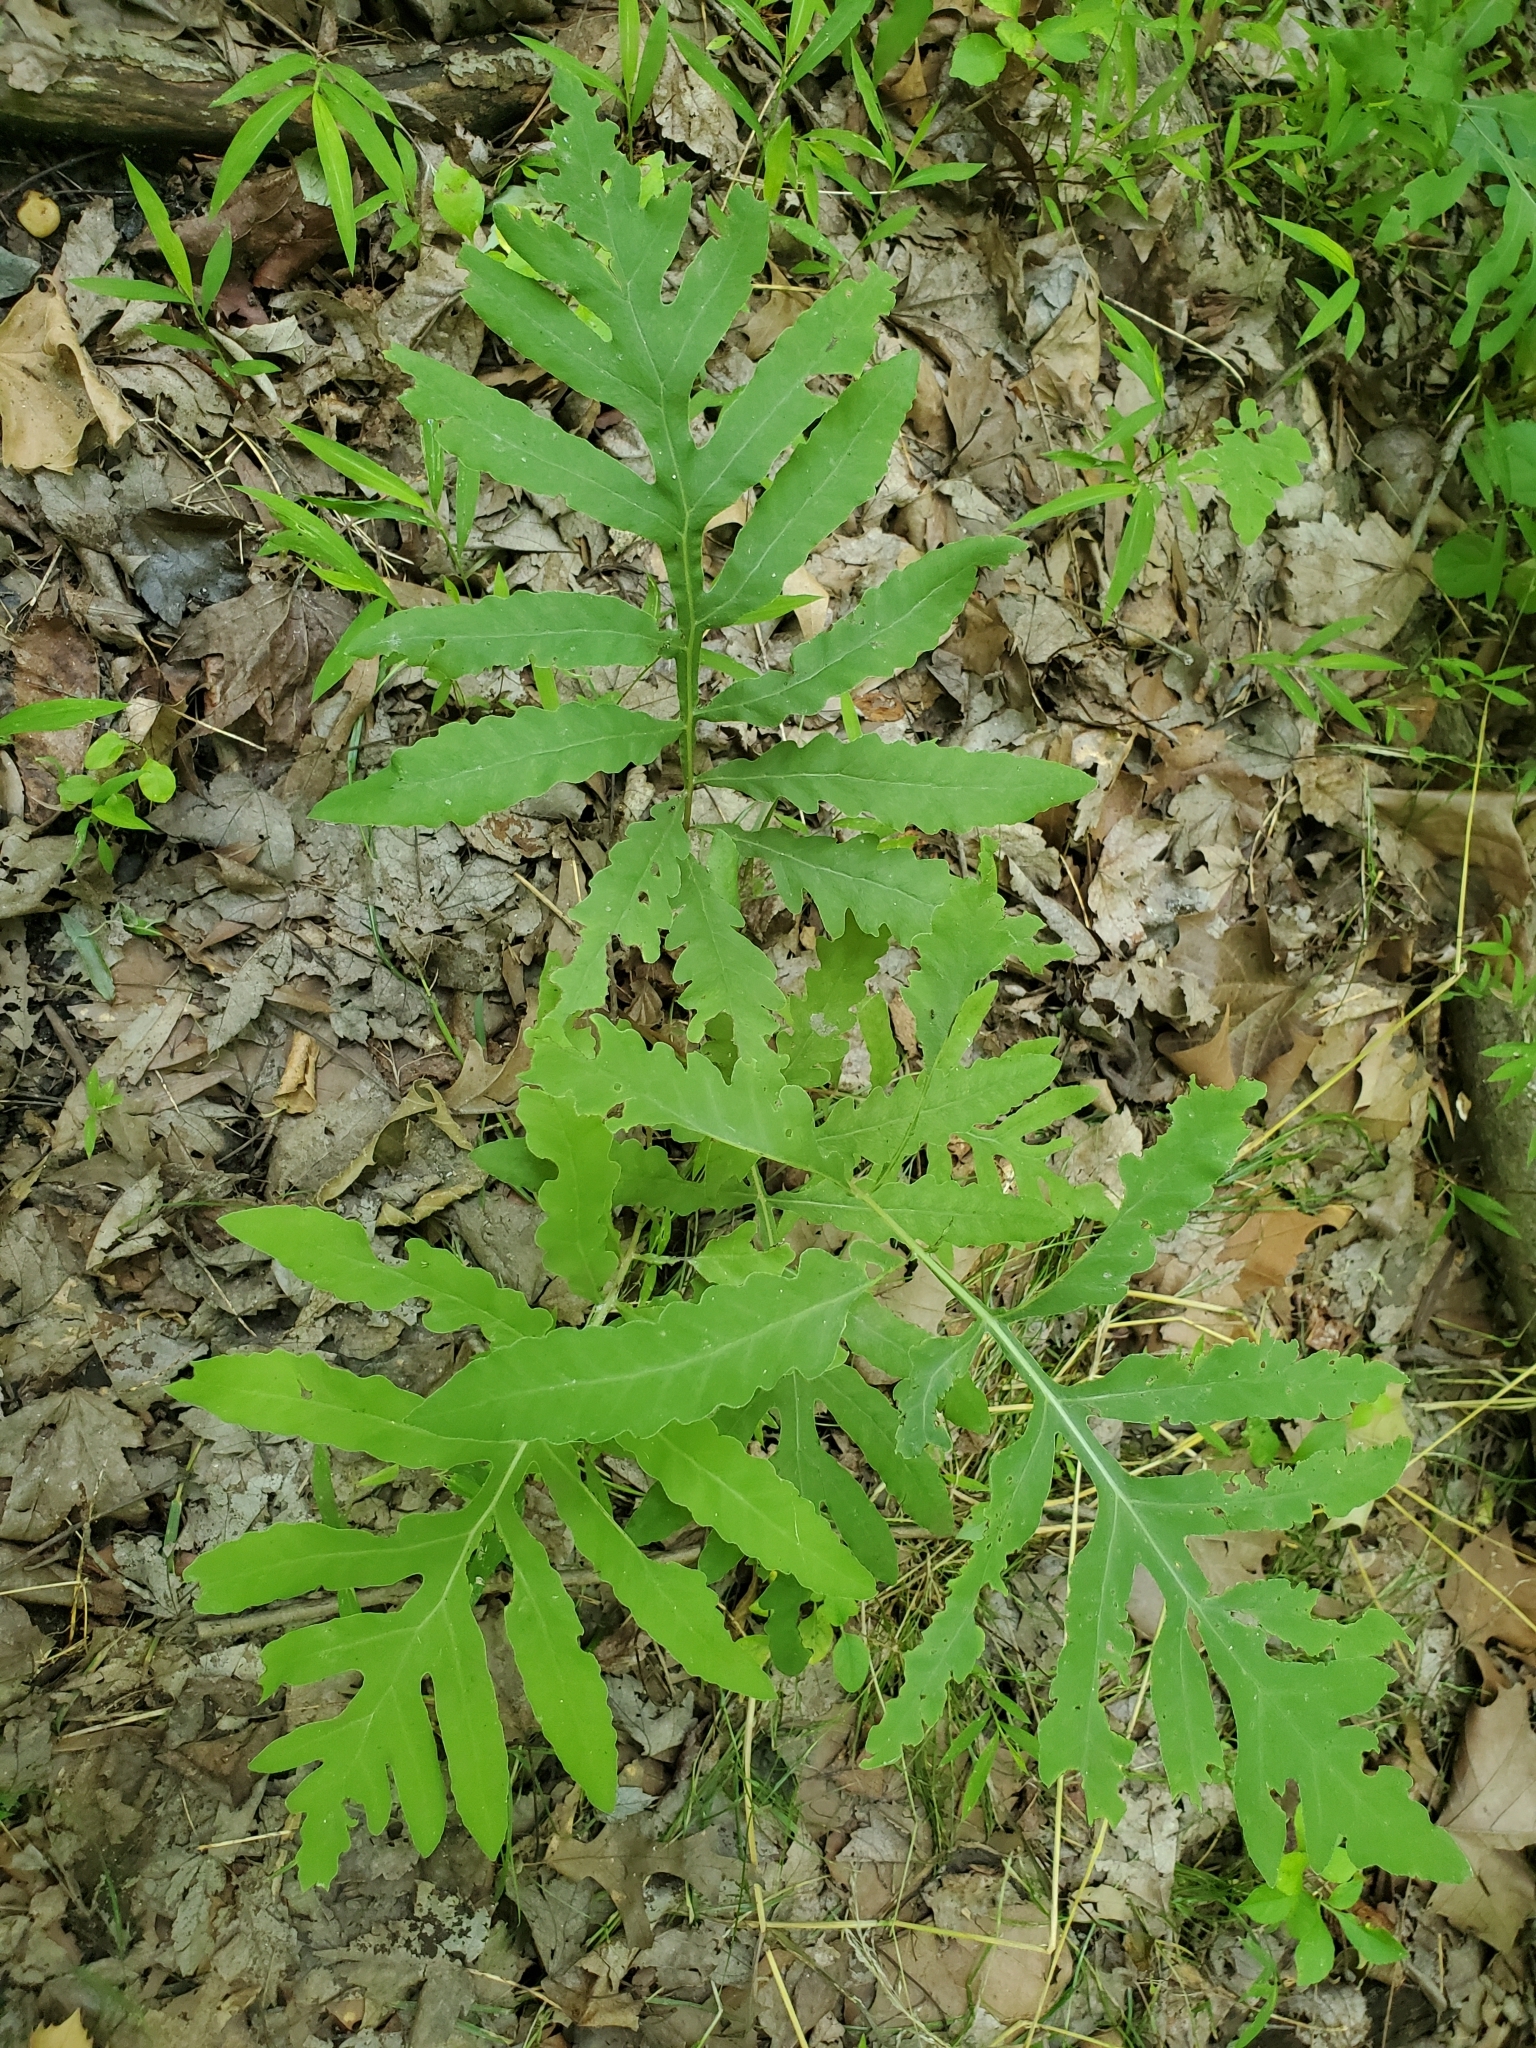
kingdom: Plantae
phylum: Tracheophyta
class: Polypodiopsida
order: Polypodiales
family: Onocleaceae
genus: Onoclea
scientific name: Onoclea sensibilis
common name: Sensitive fern
